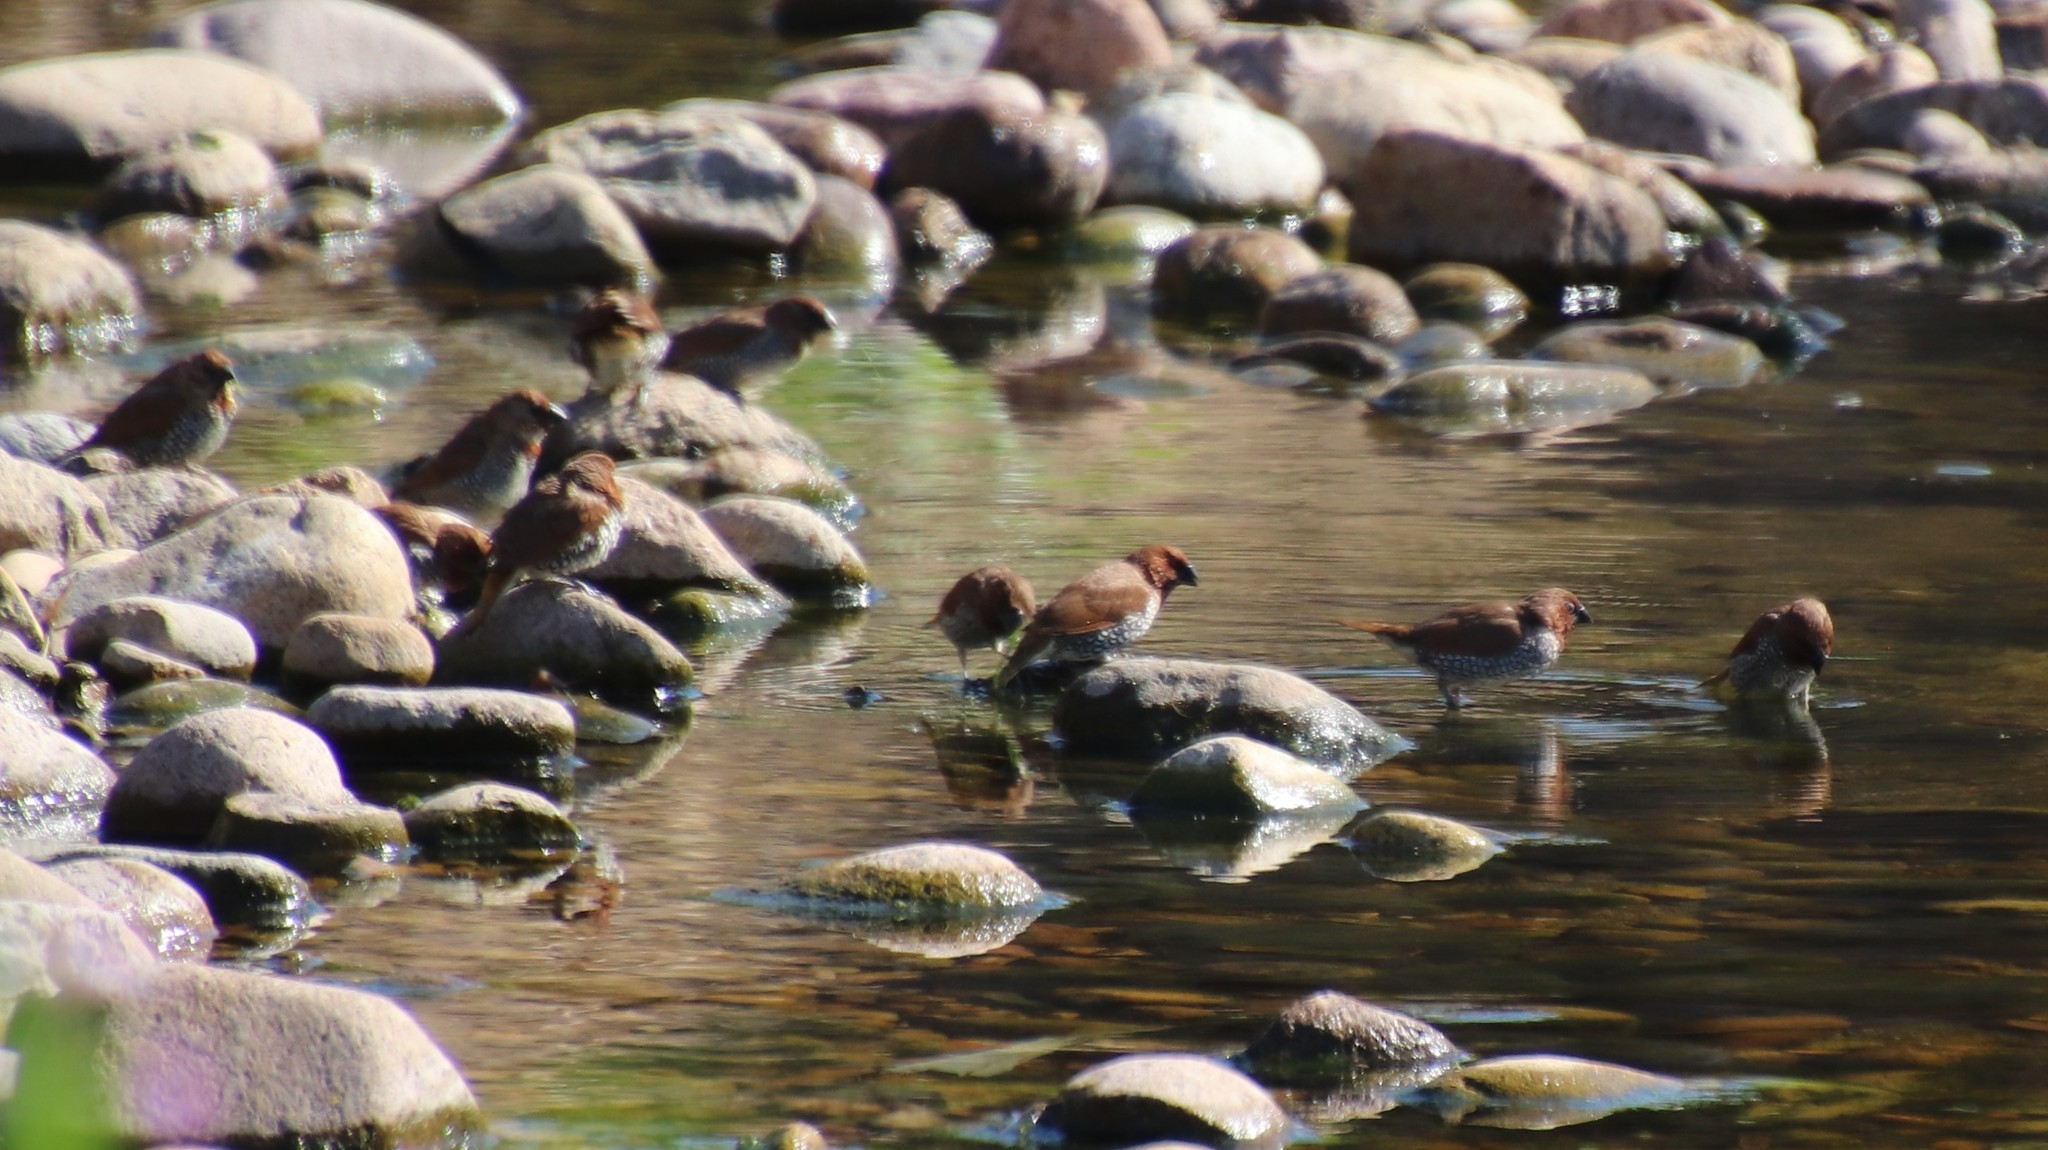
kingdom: Animalia
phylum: Chordata
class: Aves
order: Passeriformes
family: Estrildidae
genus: Lonchura
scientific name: Lonchura punctulata
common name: Scaly-breasted munia
